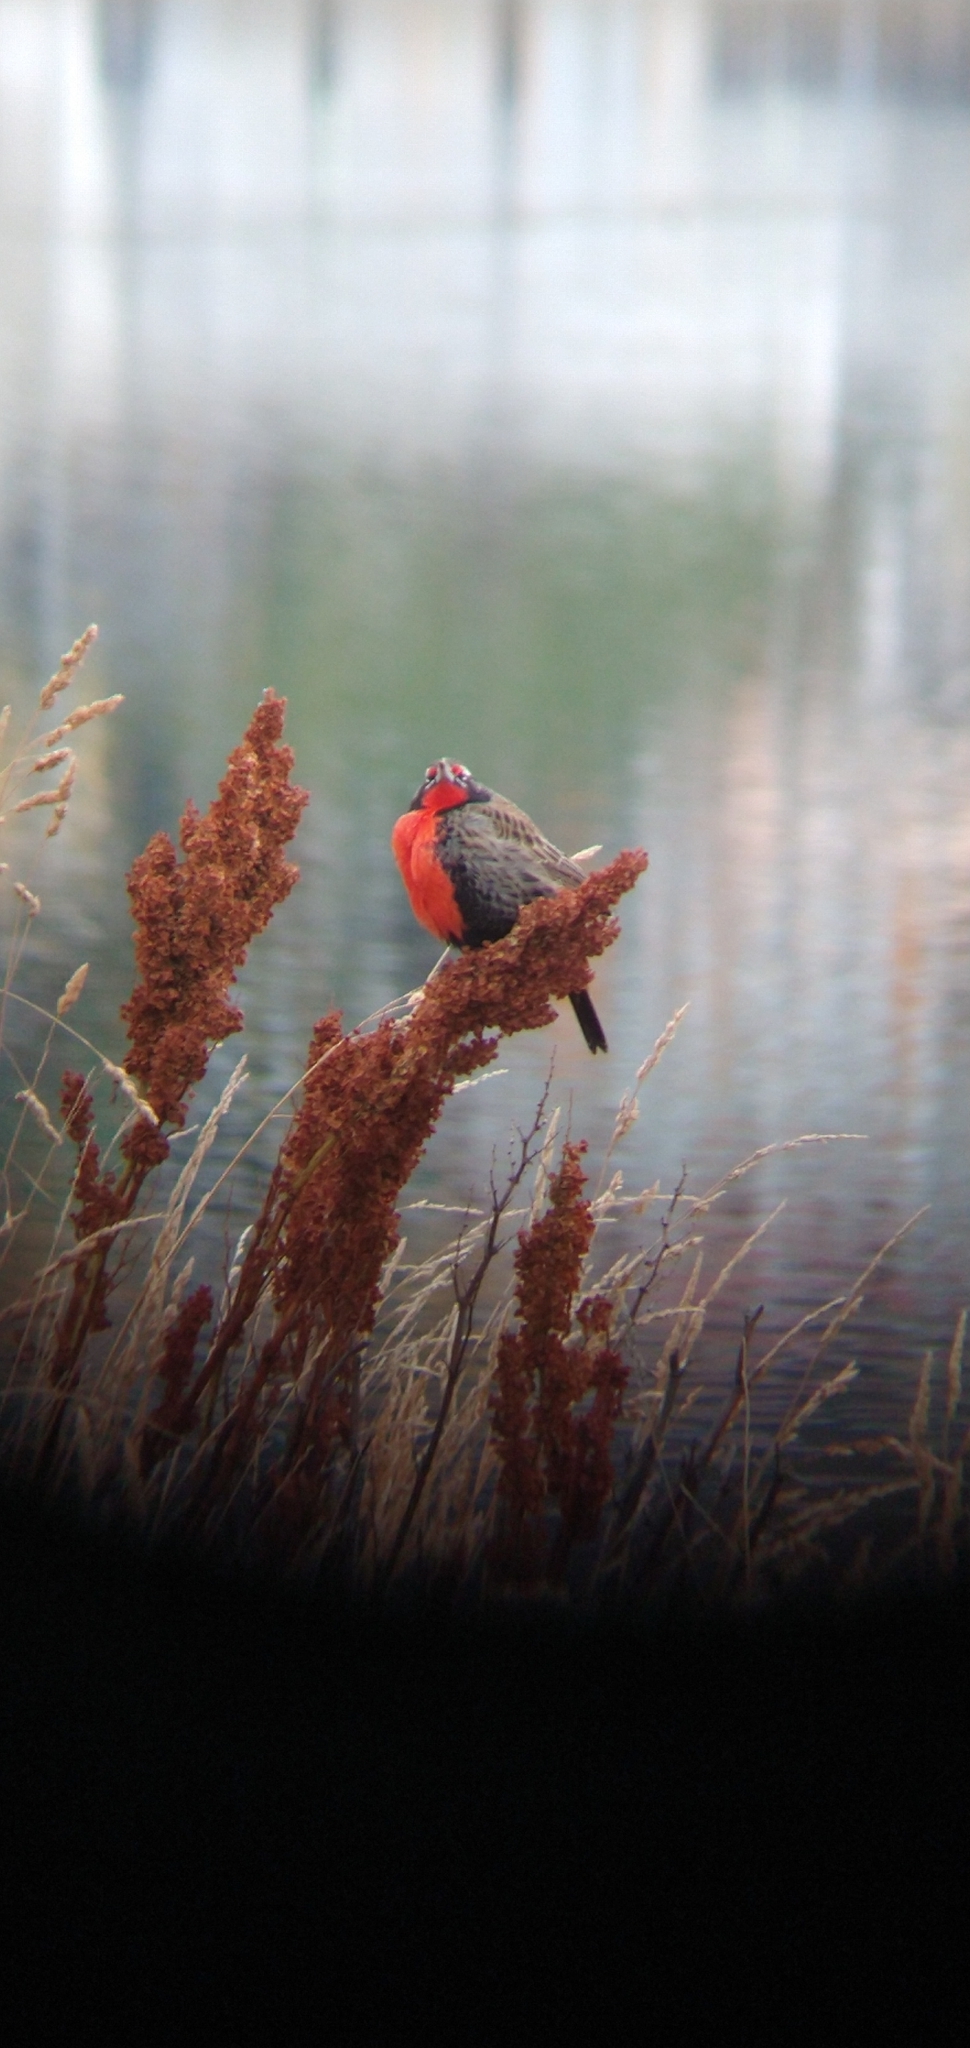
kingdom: Animalia
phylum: Chordata
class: Aves
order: Passeriformes
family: Icteridae
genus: Sturnella
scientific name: Sturnella loyca
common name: Long-tailed meadowlark
